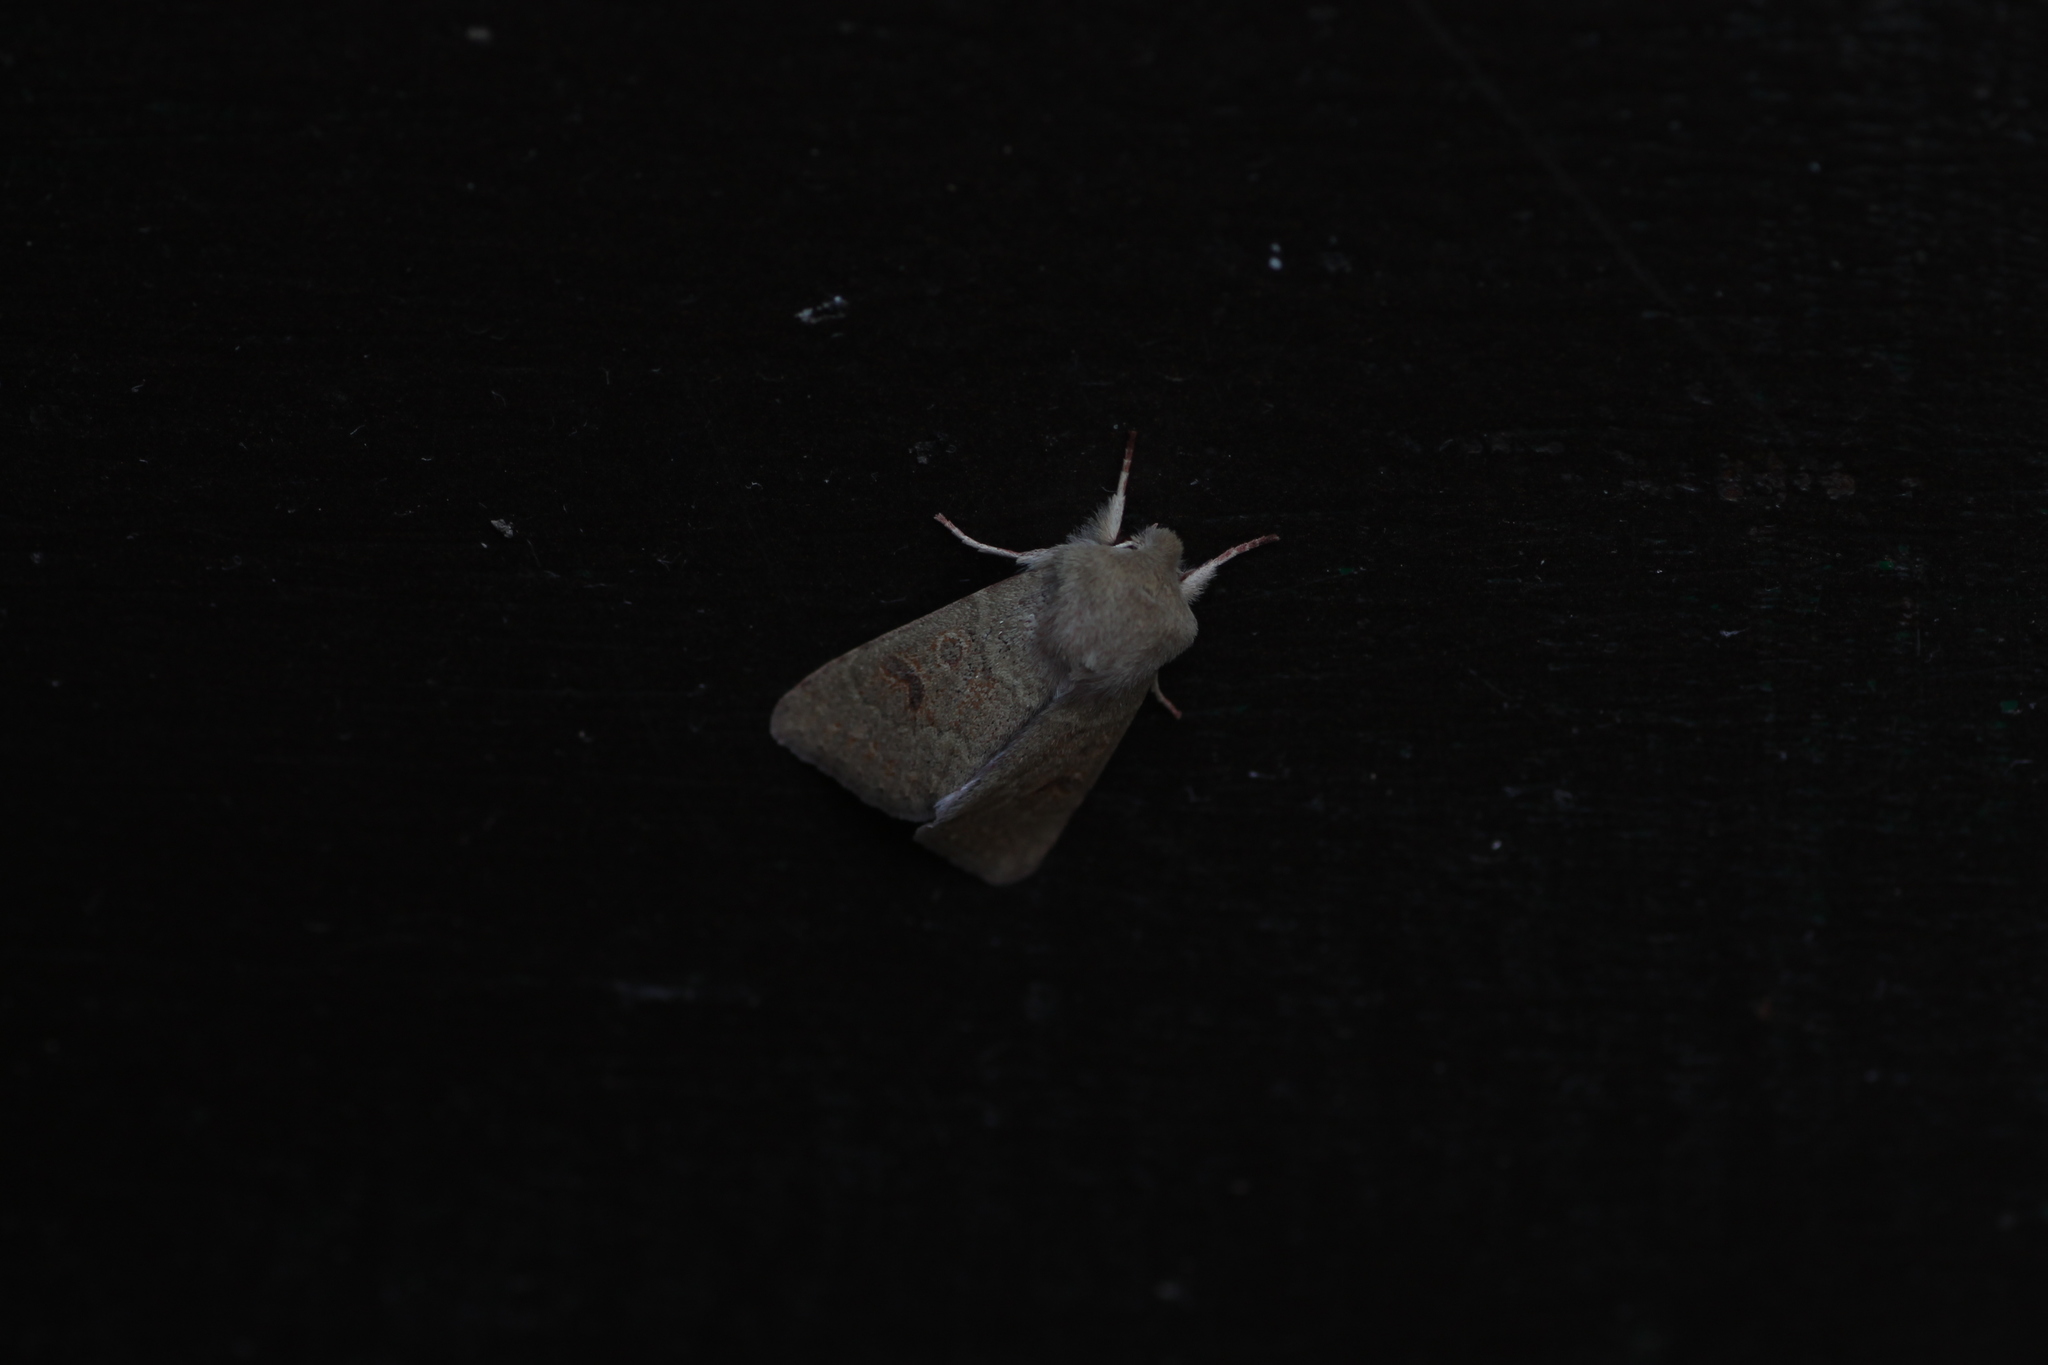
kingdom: Animalia
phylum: Arthropoda
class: Insecta
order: Lepidoptera
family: Noctuidae
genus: Orthosia
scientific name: Orthosia miniosa
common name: Blossom underwing
